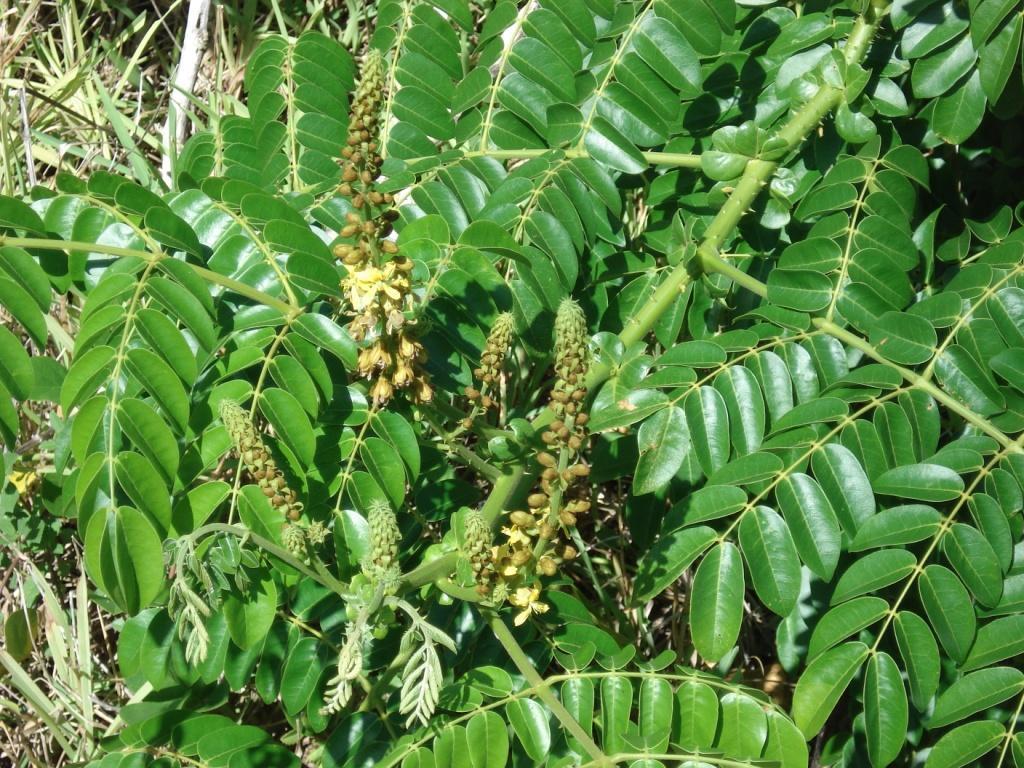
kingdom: Plantae
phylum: Tracheophyta
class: Magnoliopsida
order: Fabales
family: Fabaceae
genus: Guilandina
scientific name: Guilandina bonduc
